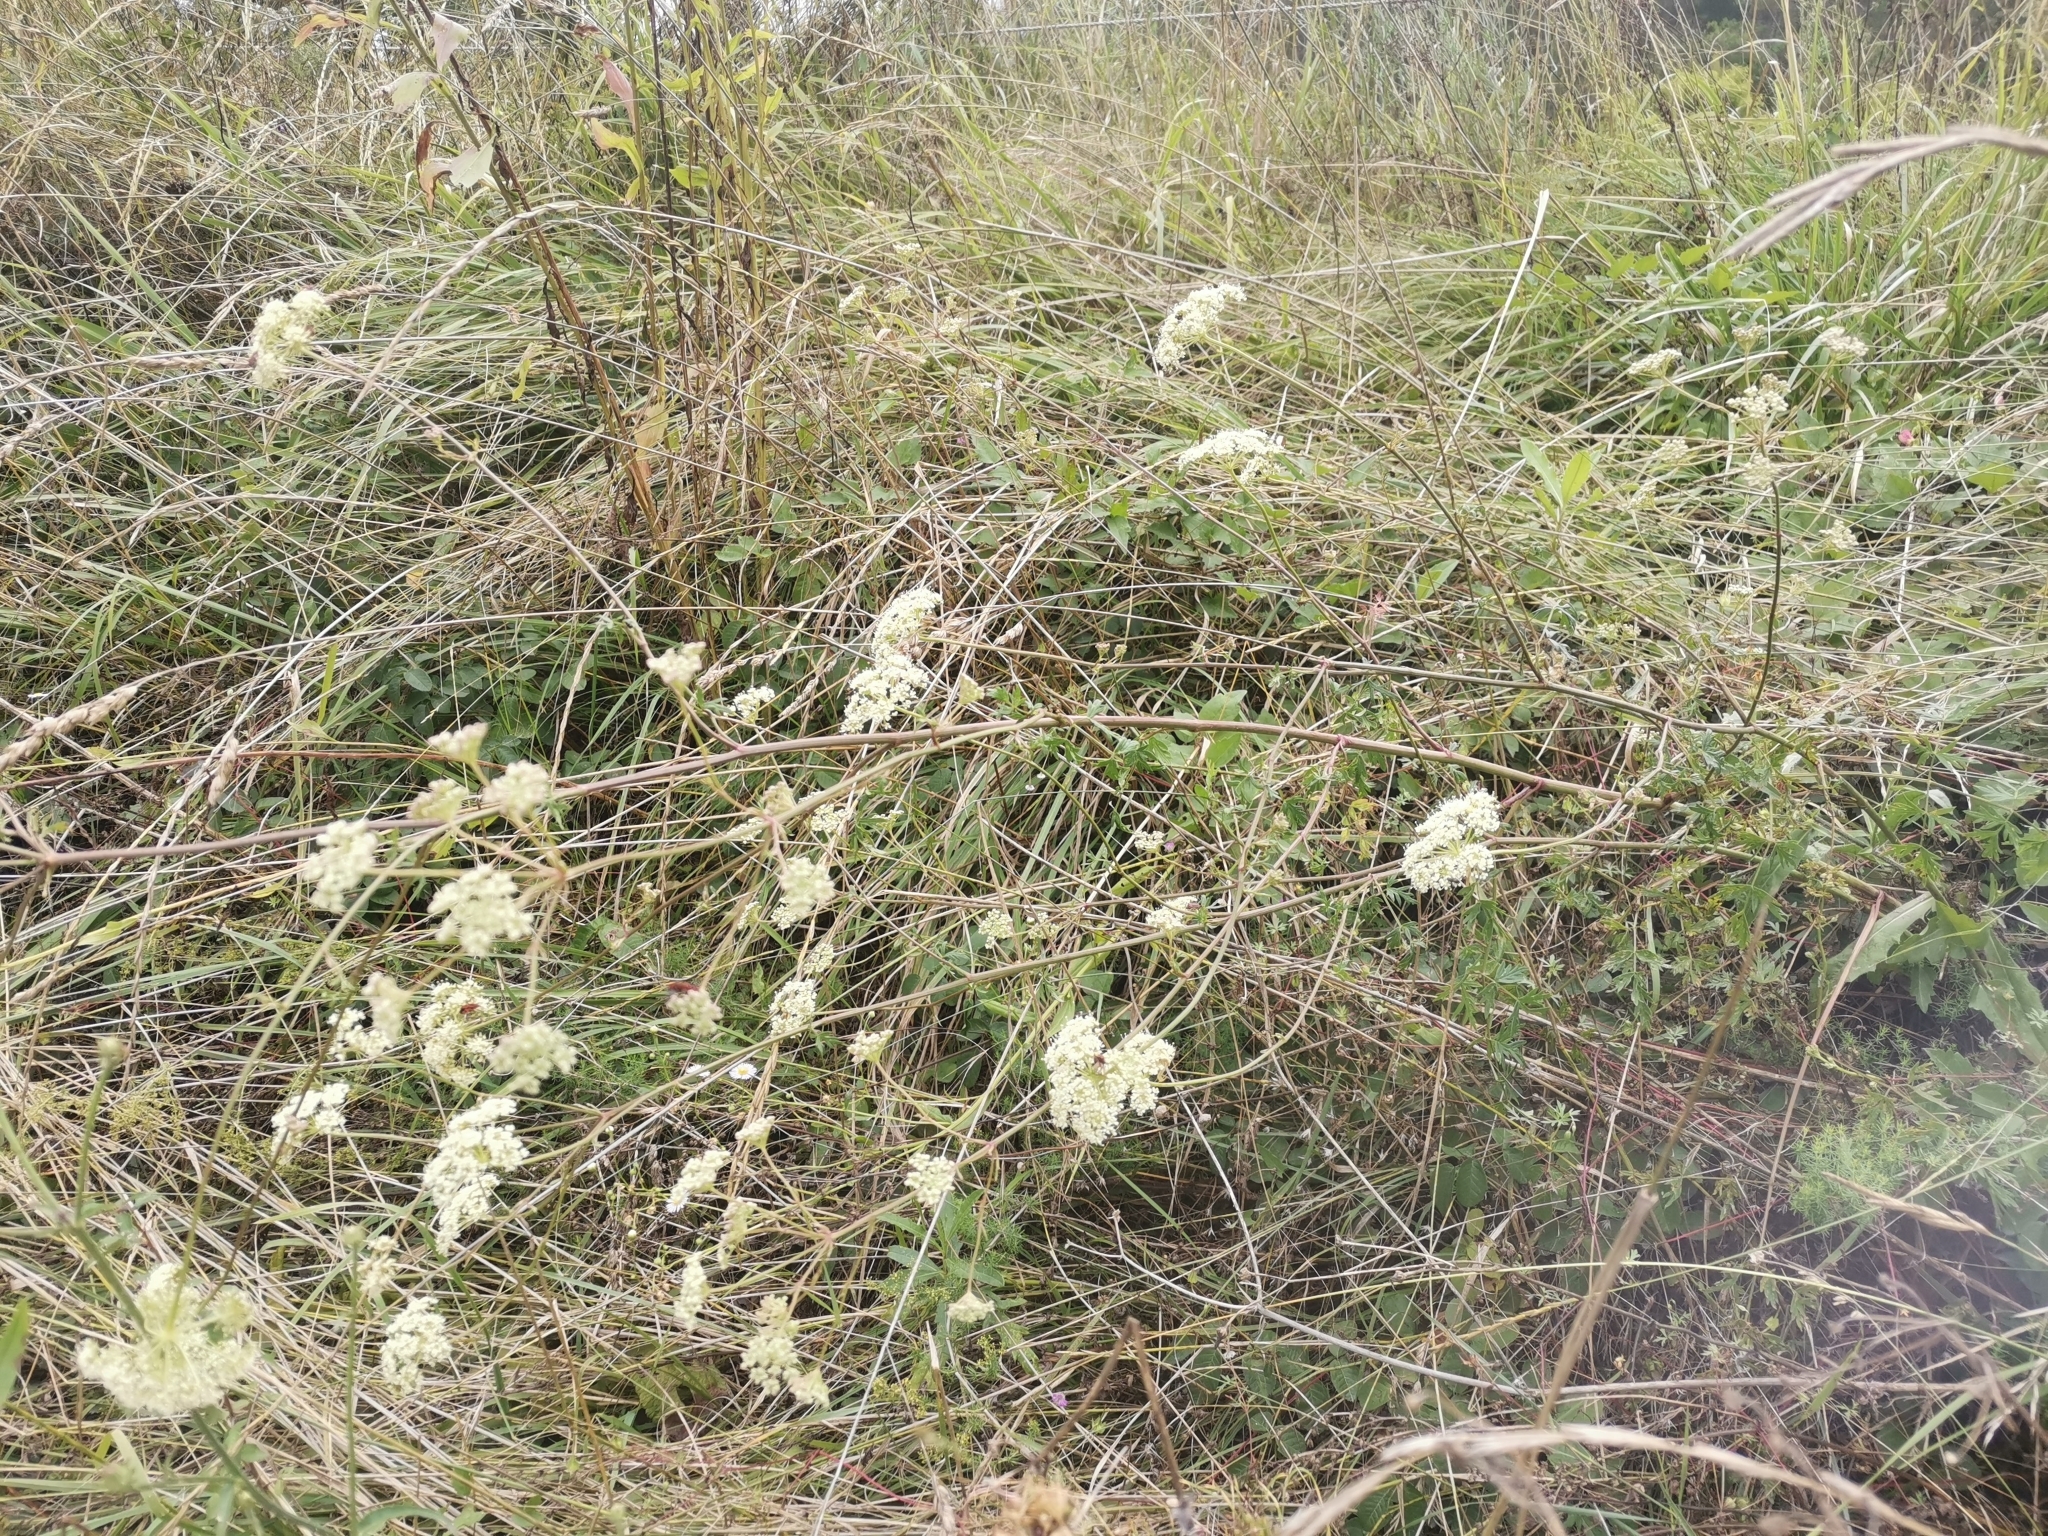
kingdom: Plantae
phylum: Tracheophyta
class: Magnoliopsida
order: Apiales
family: Apiaceae
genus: Xanthoselinum
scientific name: Xanthoselinum alsaticum
